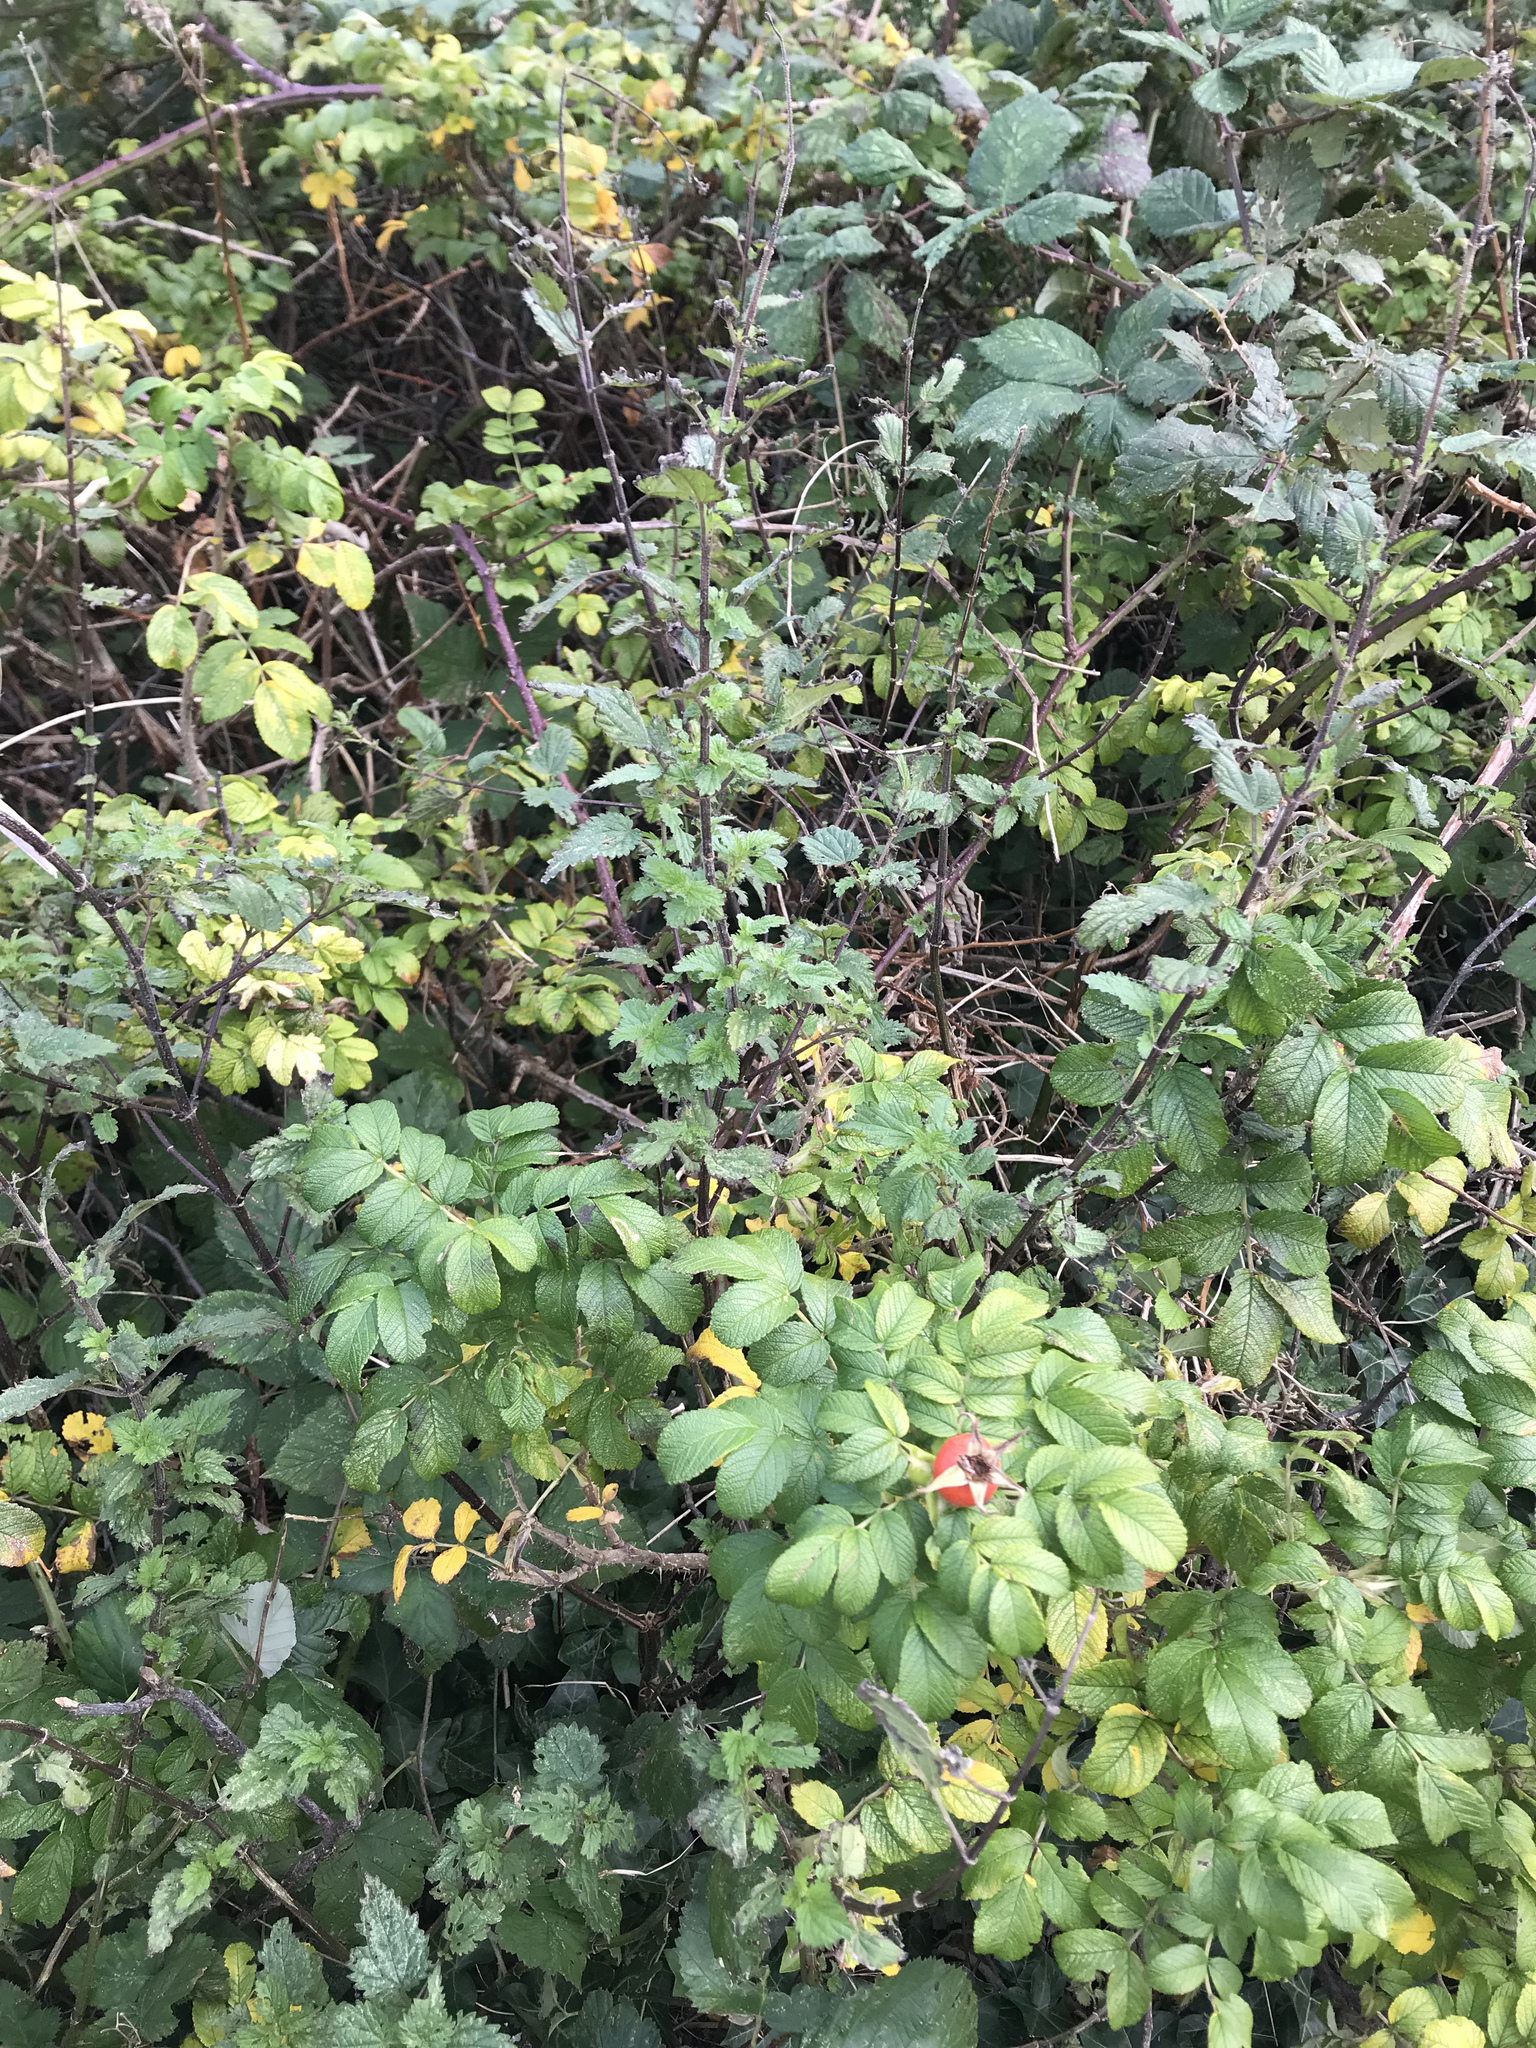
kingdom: Plantae
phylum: Tracheophyta
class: Magnoliopsida
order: Rosales
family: Rosaceae
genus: Rosa
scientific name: Rosa rugosa
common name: Japanese rose
